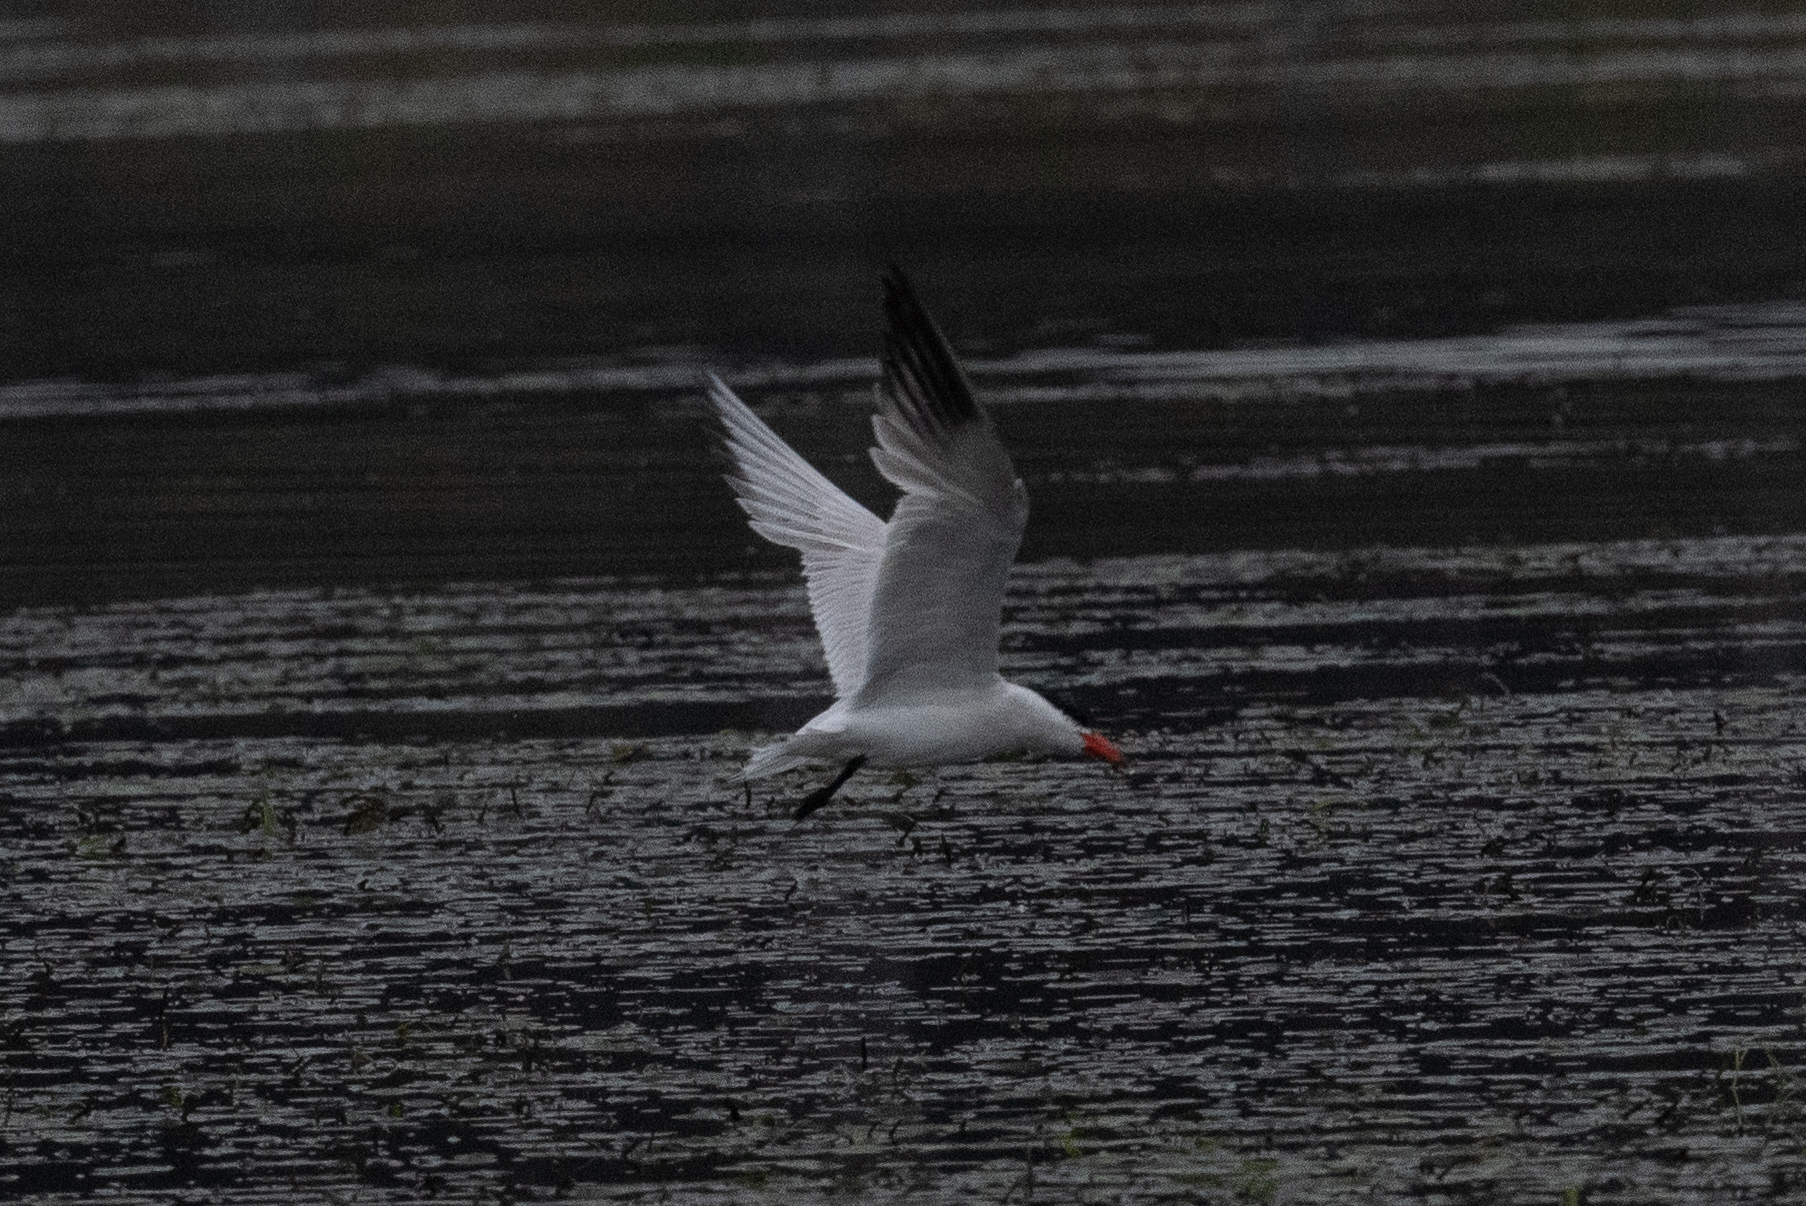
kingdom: Animalia
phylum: Chordata
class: Aves
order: Charadriiformes
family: Laridae
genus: Hydroprogne
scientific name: Hydroprogne caspia
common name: Caspian tern
